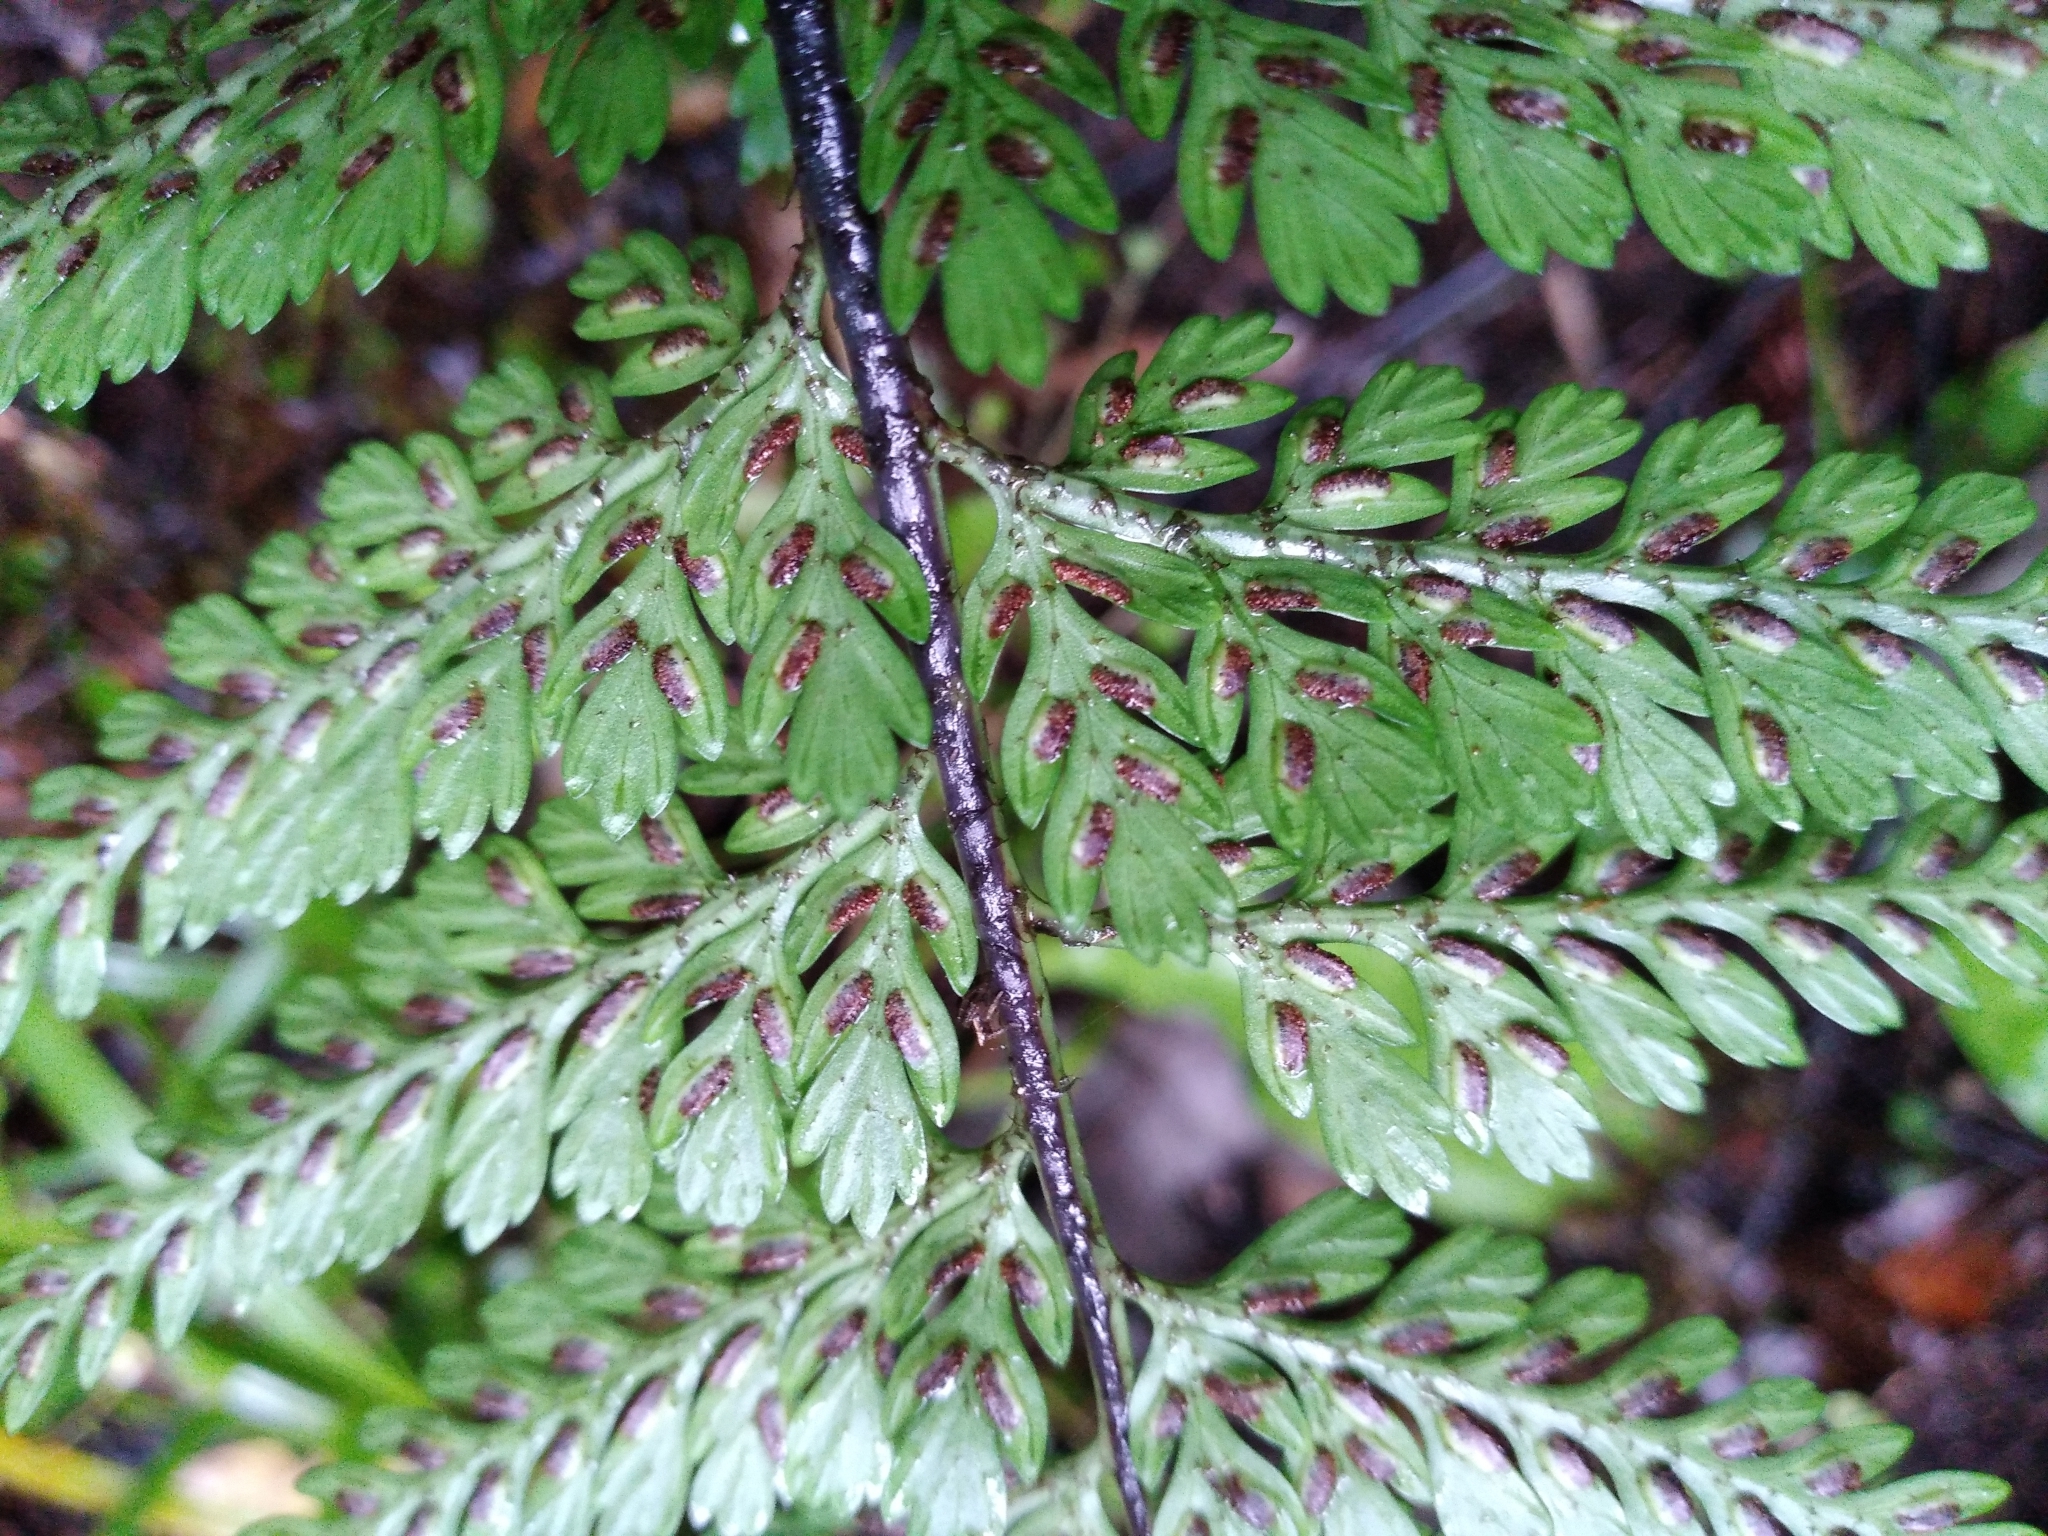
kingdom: Plantae
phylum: Tracheophyta
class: Polypodiopsida
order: Polypodiales
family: Aspleniaceae
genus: Asplenium
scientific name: Asplenium
